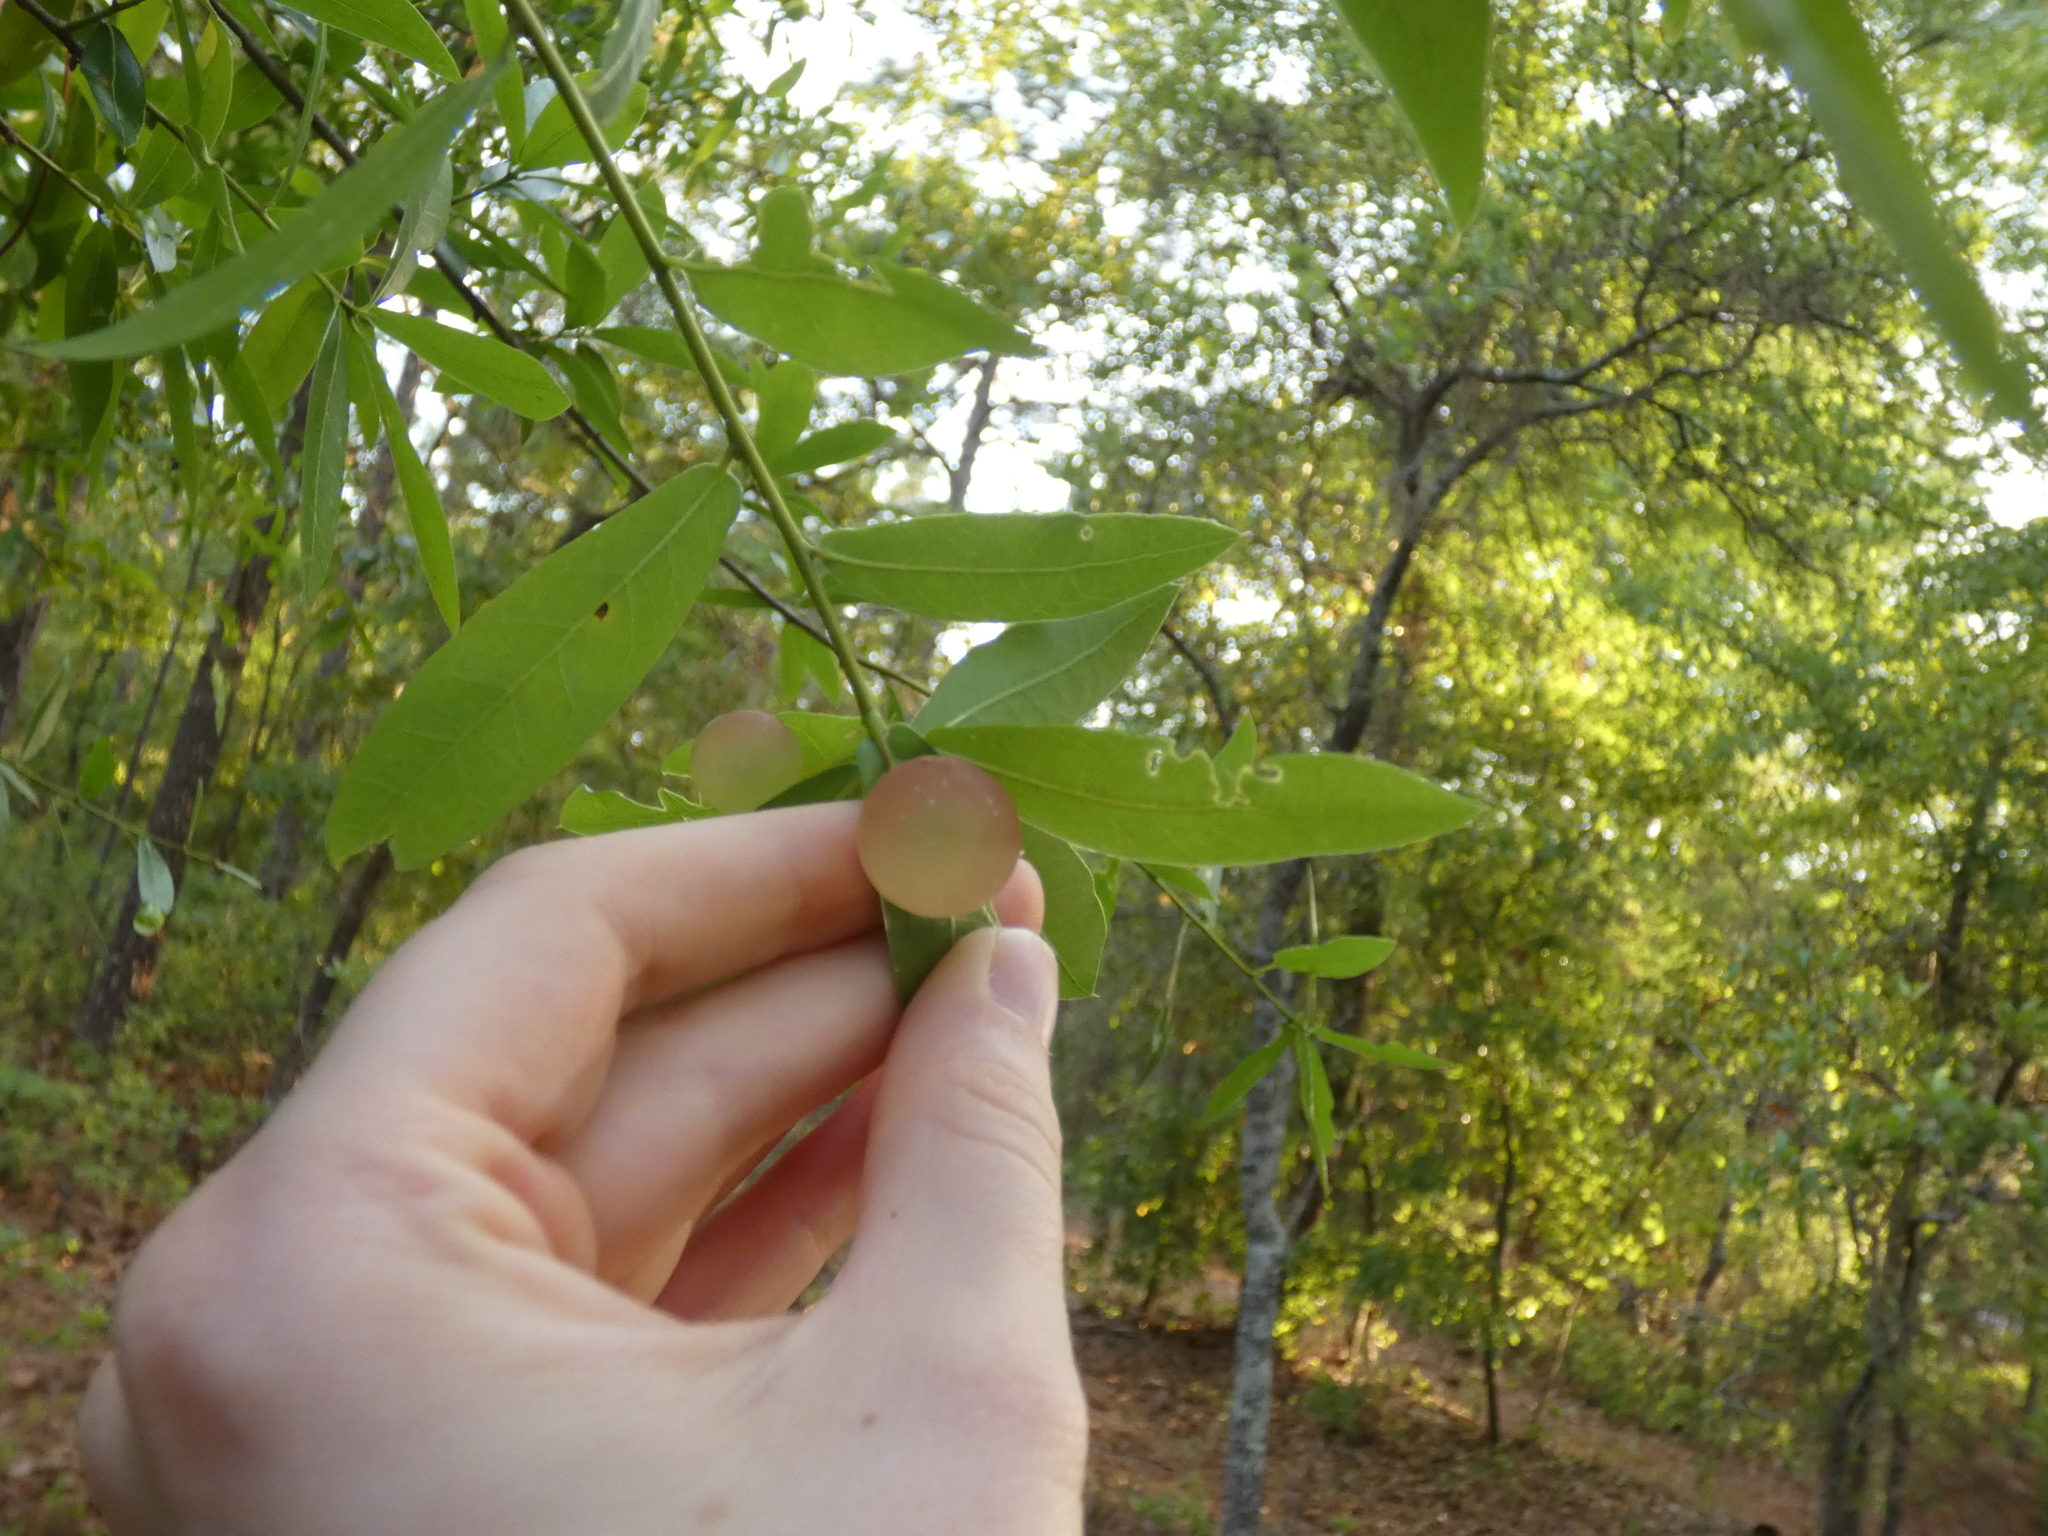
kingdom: Animalia
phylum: Arthropoda
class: Insecta
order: Hymenoptera
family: Cynipidae
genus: Amphibolips
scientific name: Amphibolips
